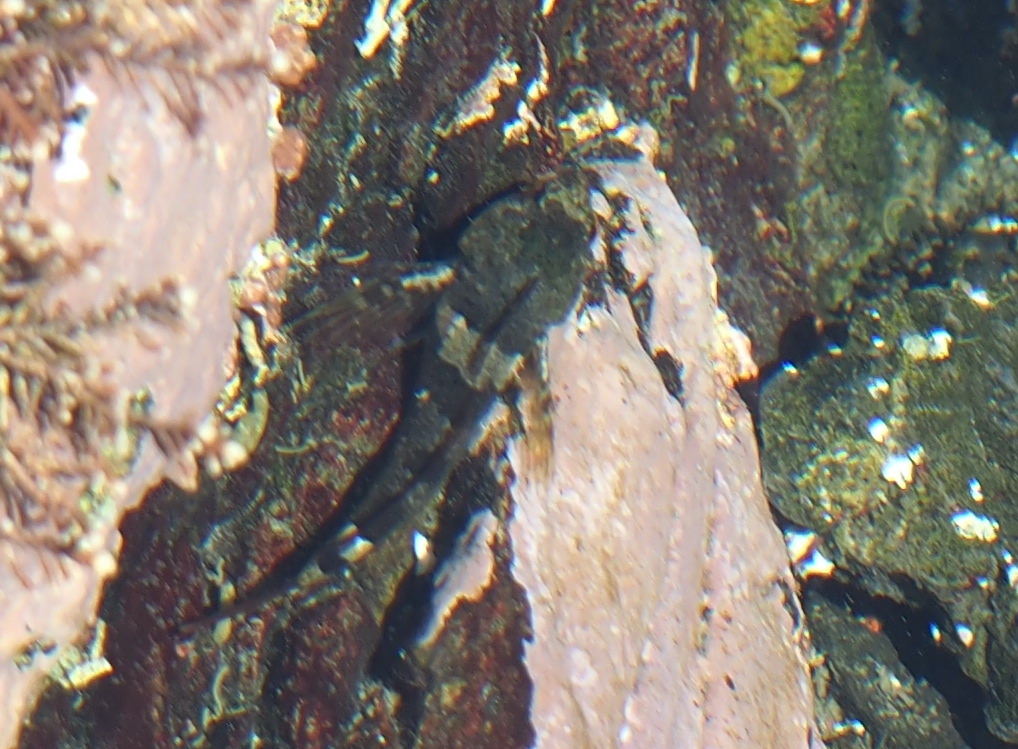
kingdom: Animalia
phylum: Chordata
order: Scorpaeniformes
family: Cottidae
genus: Oligocottus
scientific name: Oligocottus maculosus
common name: Tidepool sculpin
